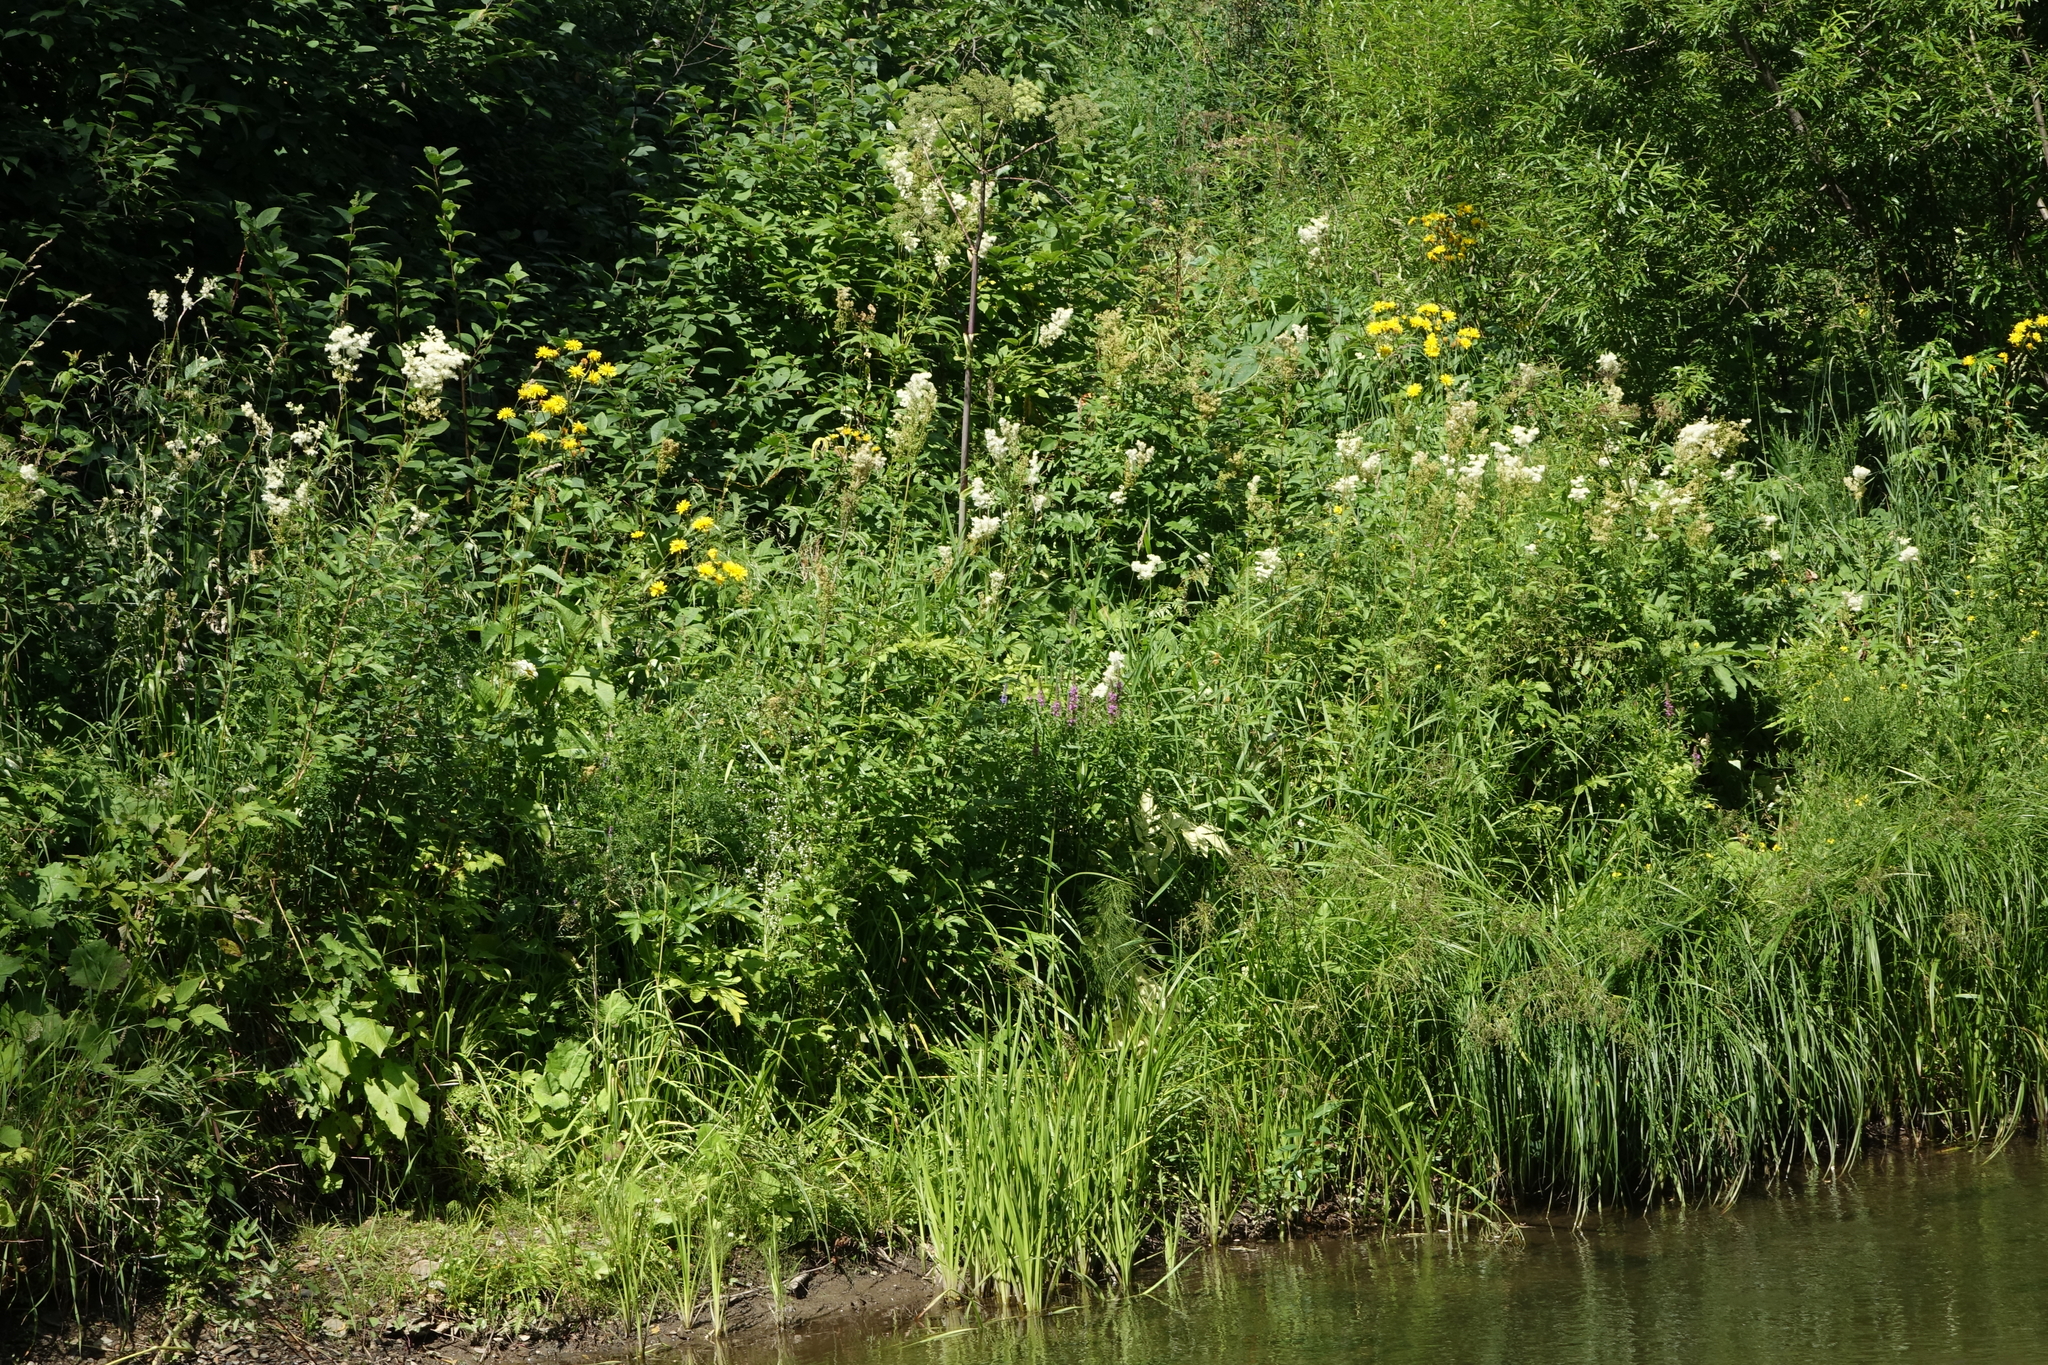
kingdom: Plantae
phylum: Tracheophyta
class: Magnoliopsida
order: Rosales
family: Rosaceae
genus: Filipendula
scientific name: Filipendula ulmaria
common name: Meadowsweet
